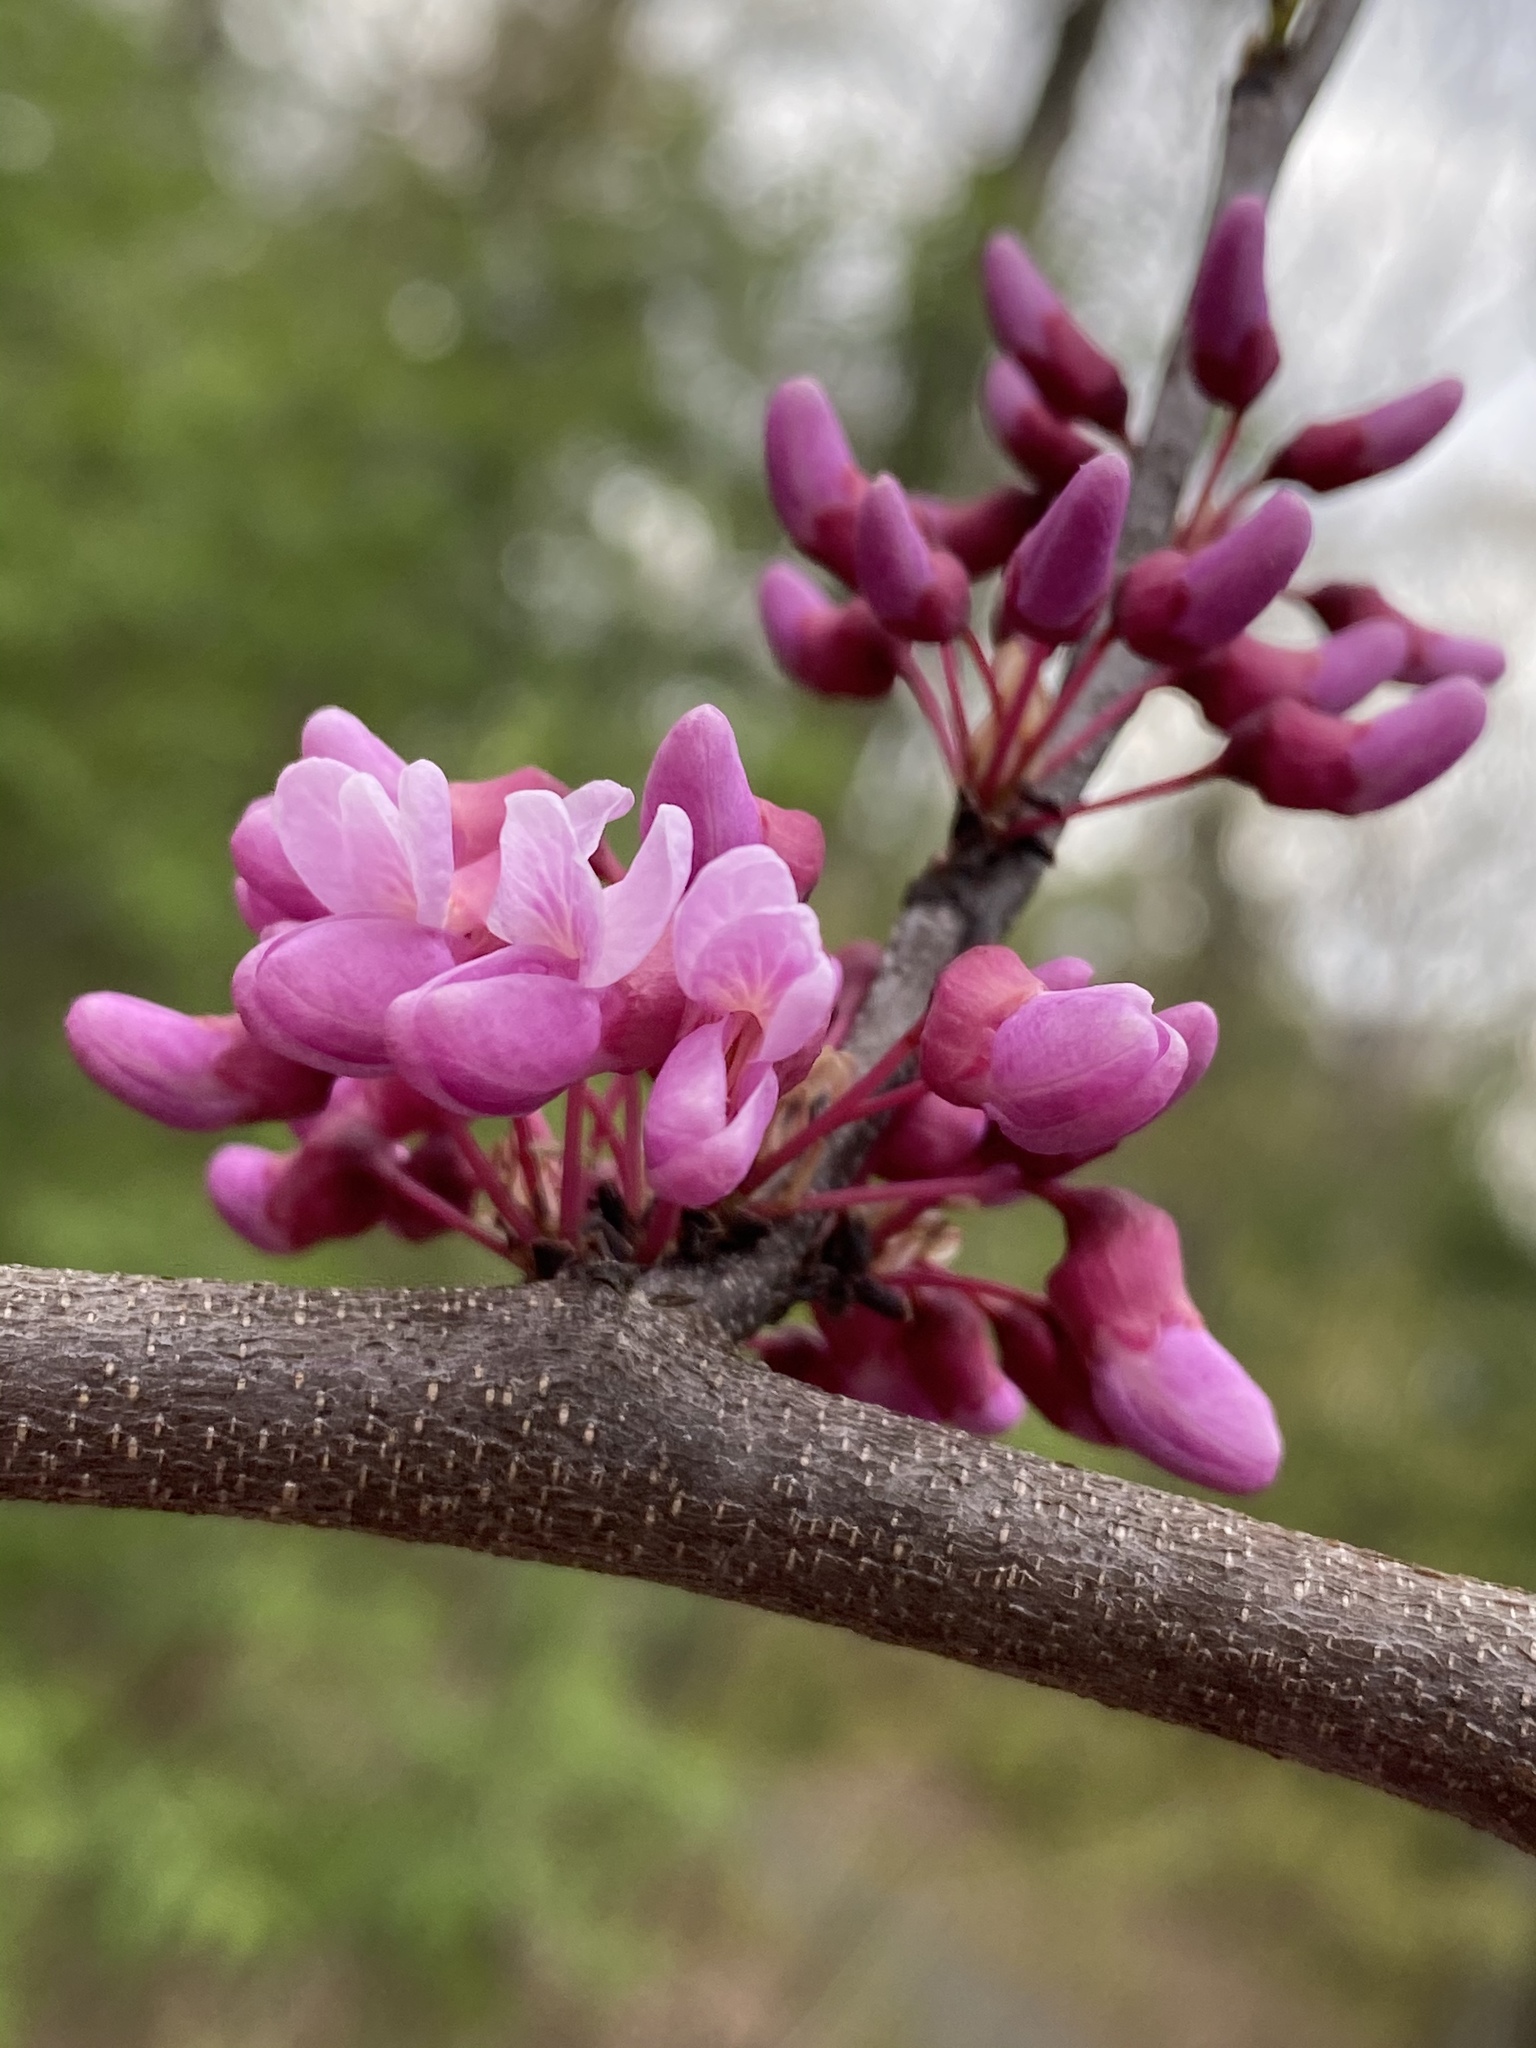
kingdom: Plantae
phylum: Tracheophyta
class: Magnoliopsida
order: Fabales
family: Fabaceae
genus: Cercis
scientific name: Cercis canadensis
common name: Eastern redbud
